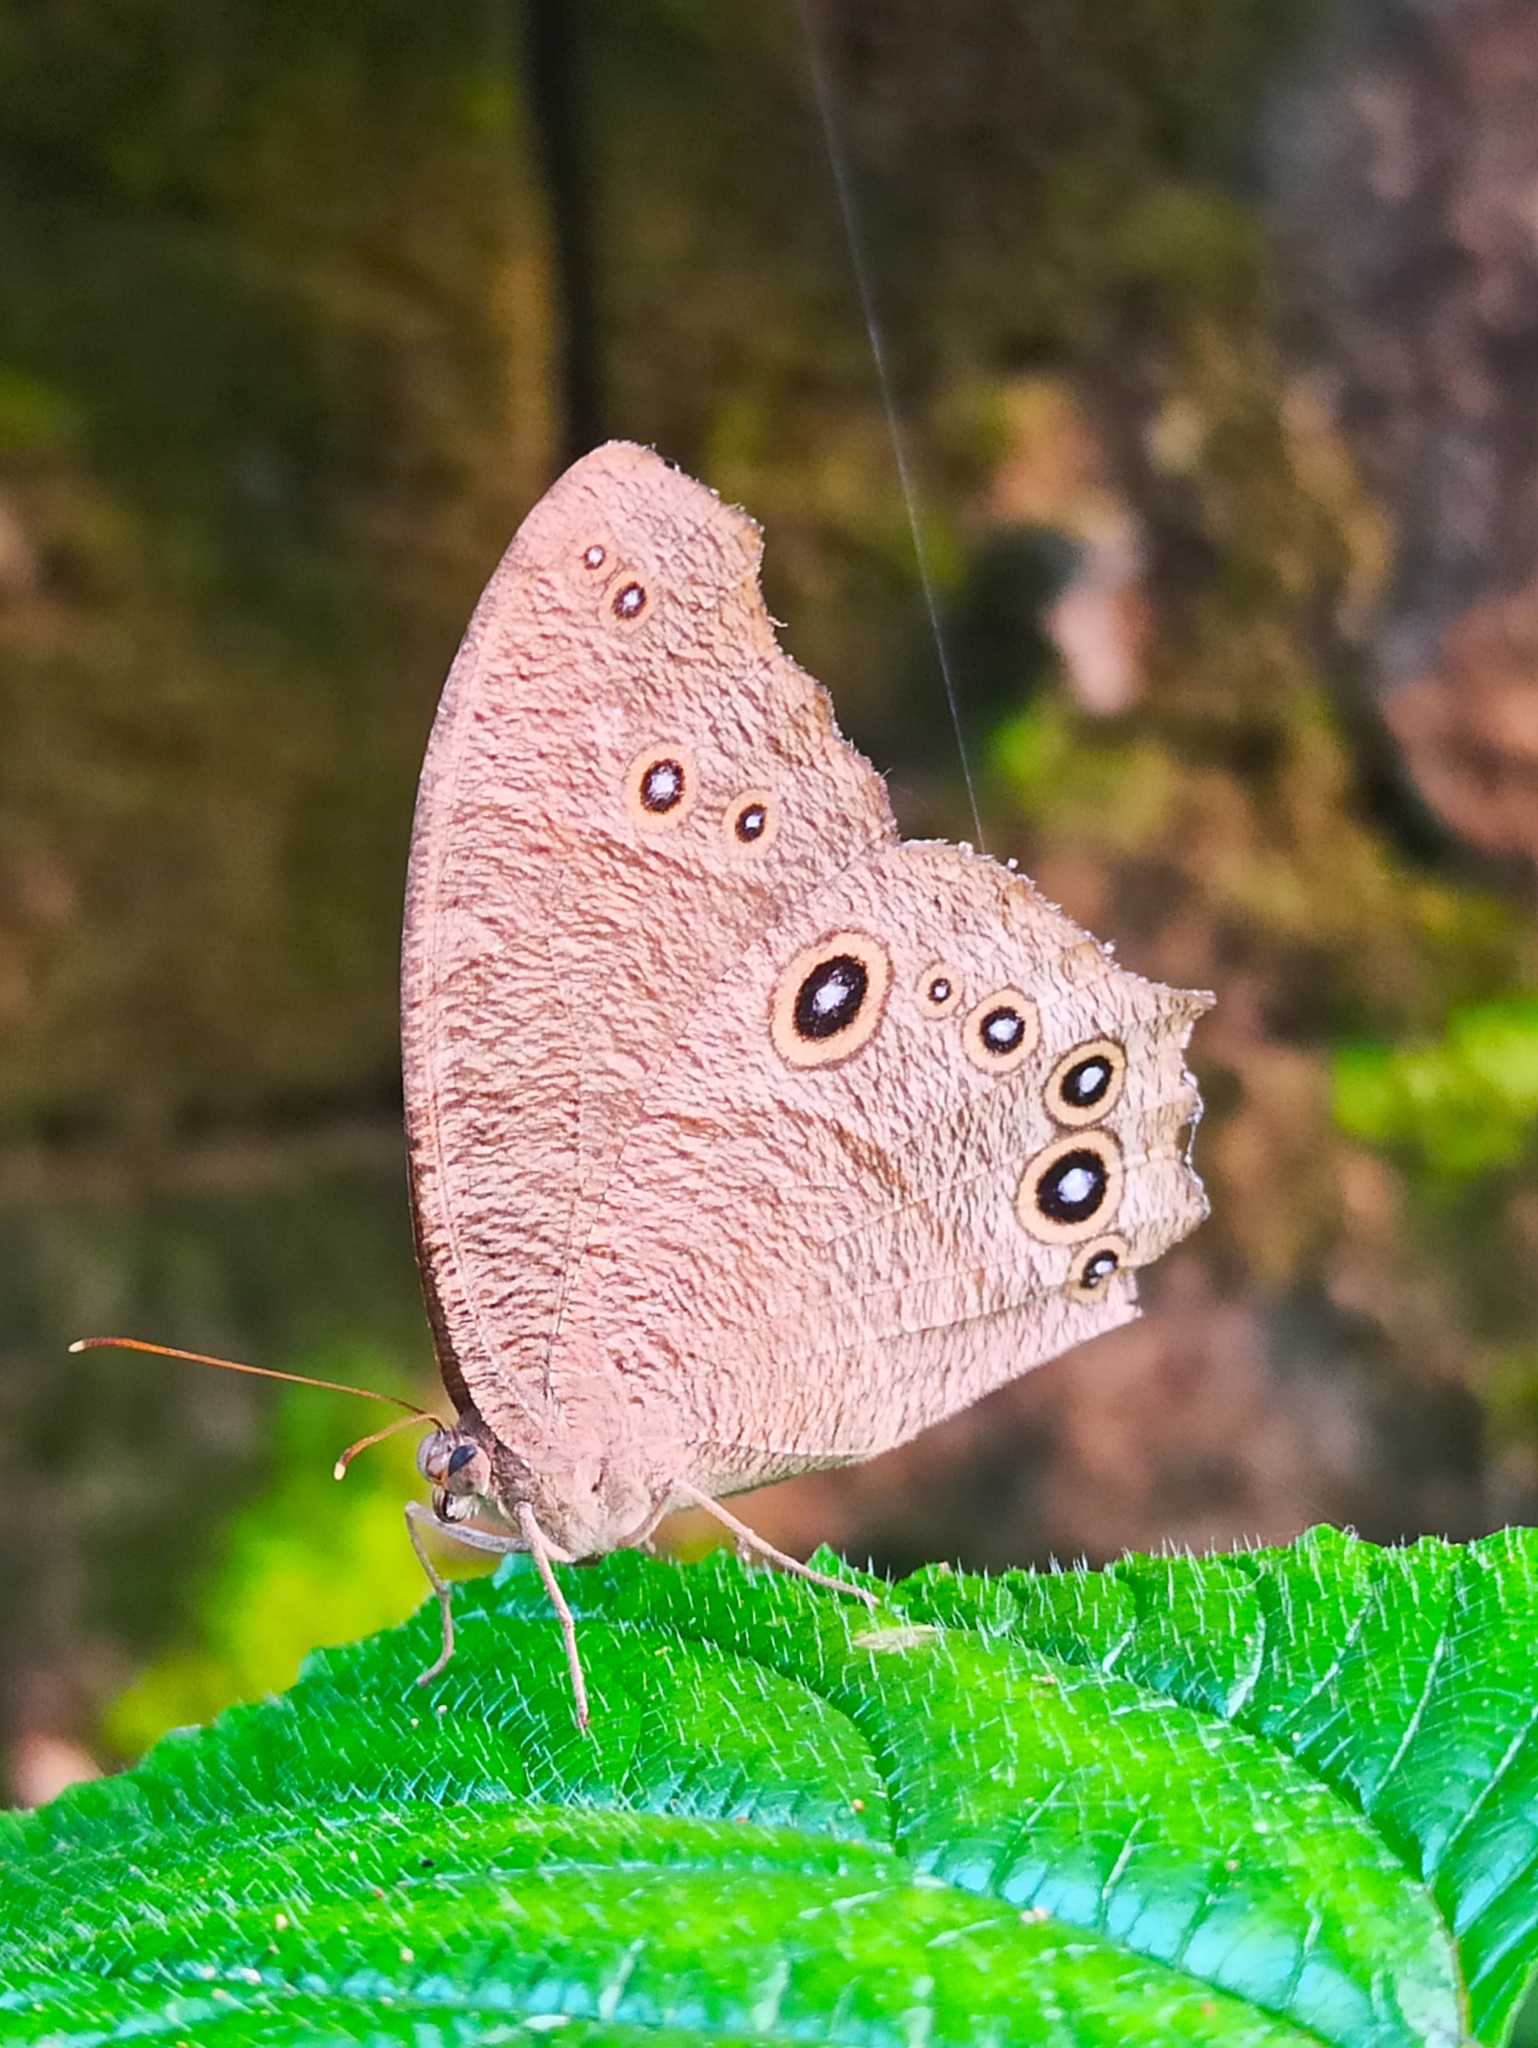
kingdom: Animalia
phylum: Arthropoda
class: Insecta
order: Lepidoptera
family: Nymphalidae
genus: Melanitis
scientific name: Melanitis leda
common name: Twilight brown
